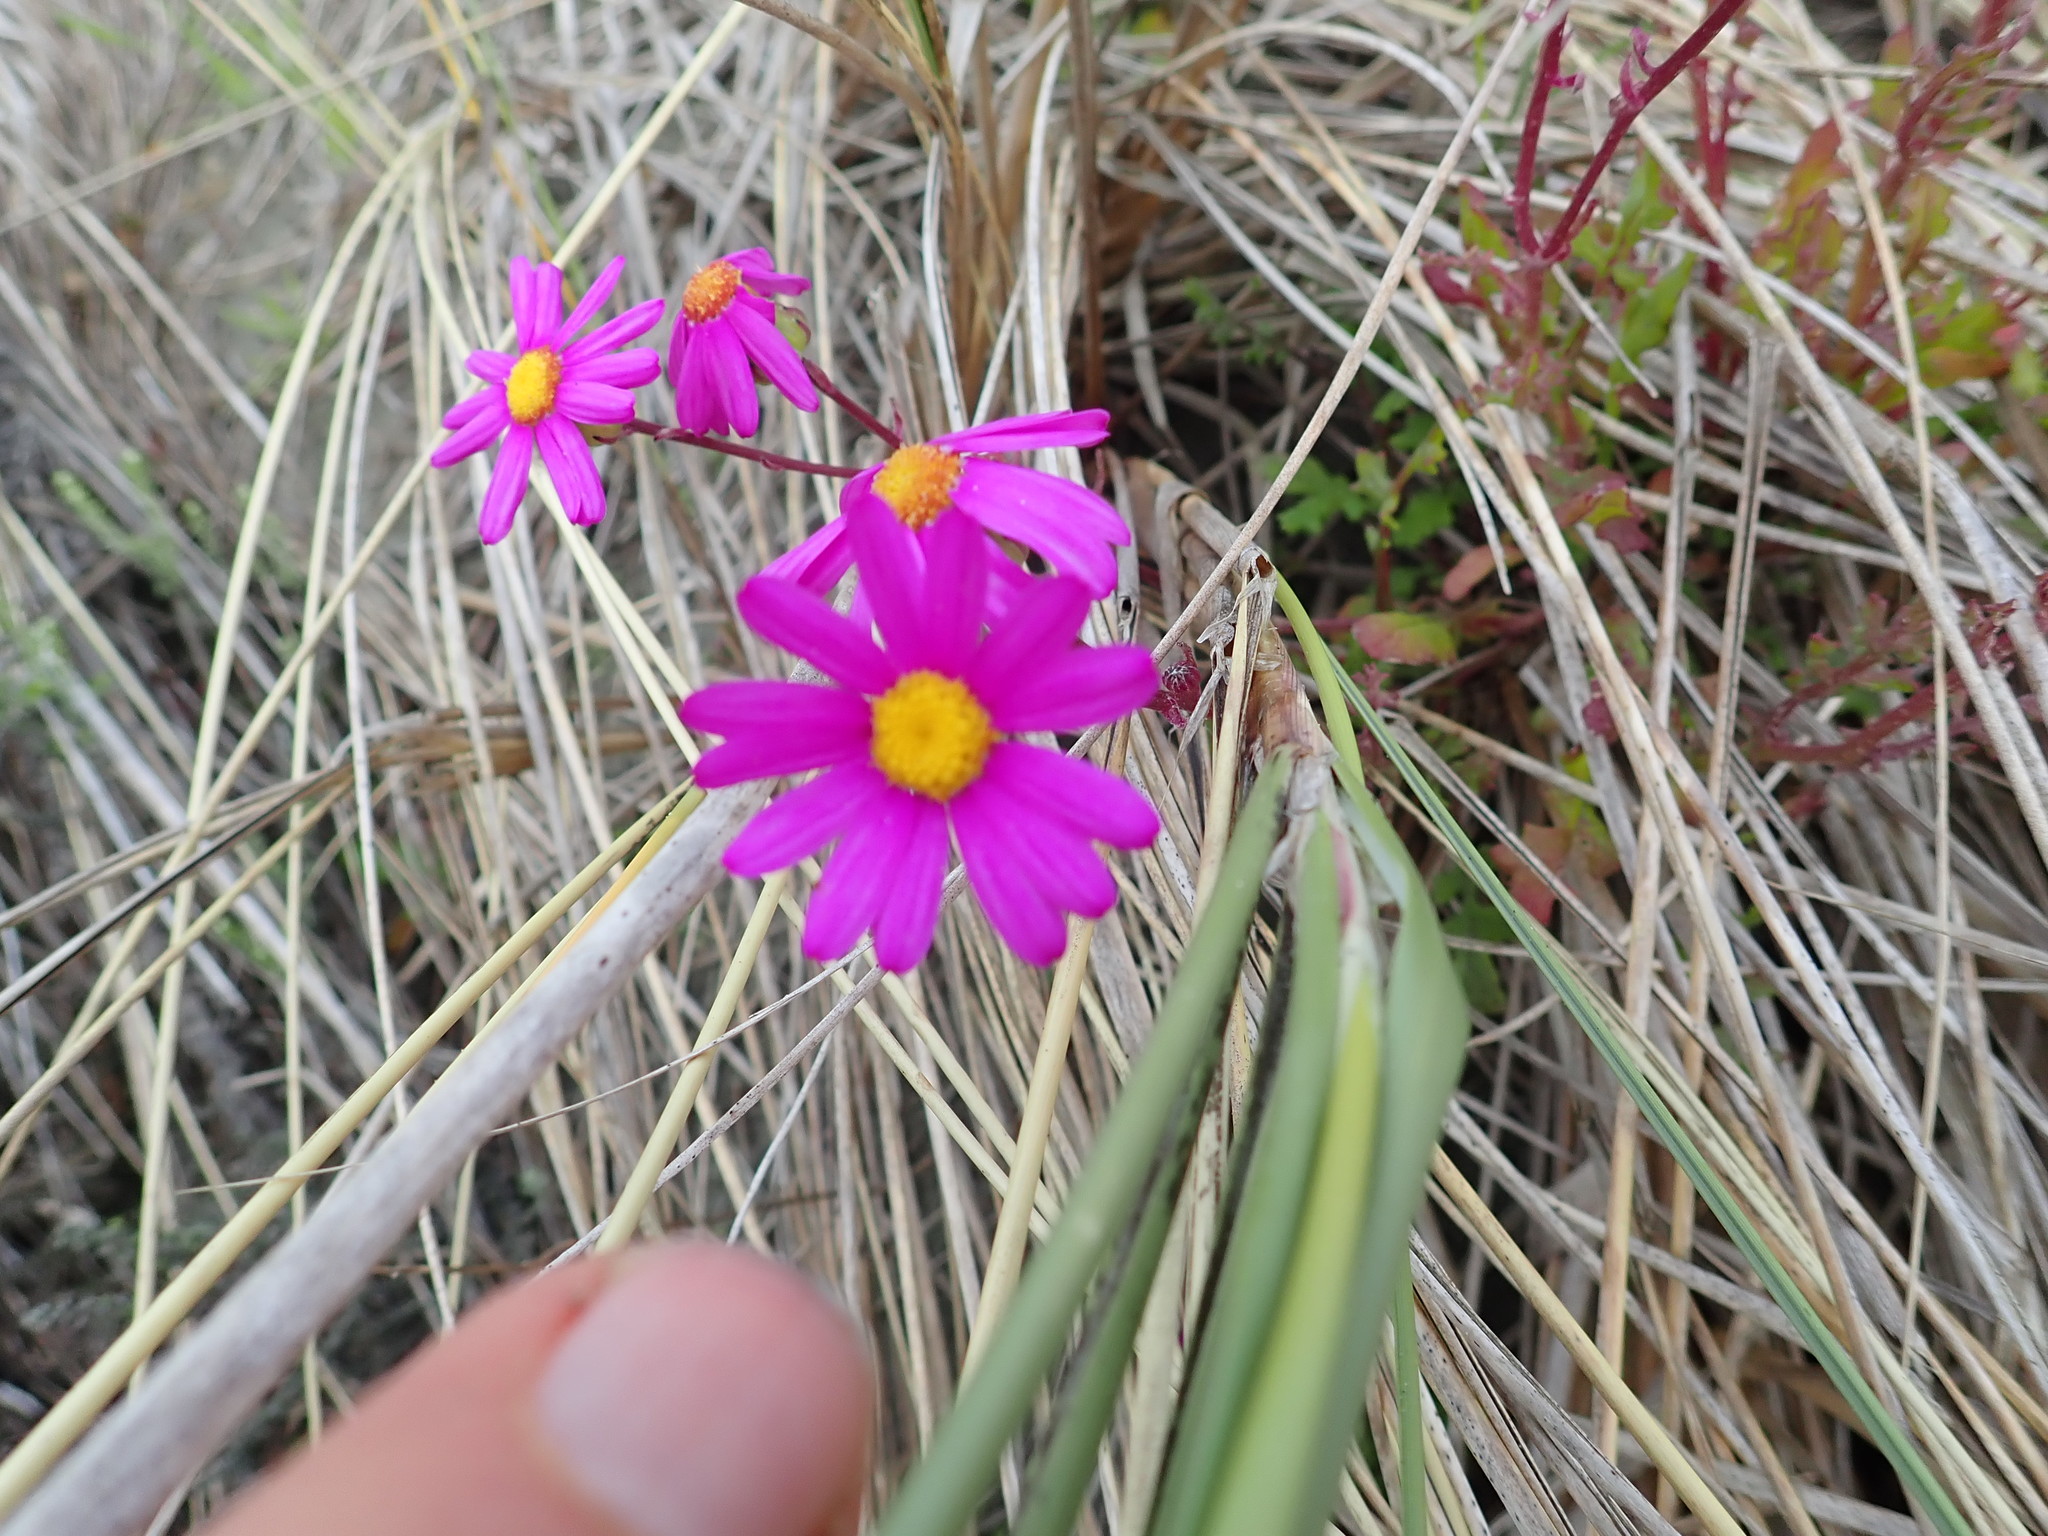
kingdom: Plantae
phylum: Tracheophyta
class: Magnoliopsida
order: Asterales
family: Asteraceae
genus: Senecio
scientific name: Senecio elegans
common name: Purple groundsel
